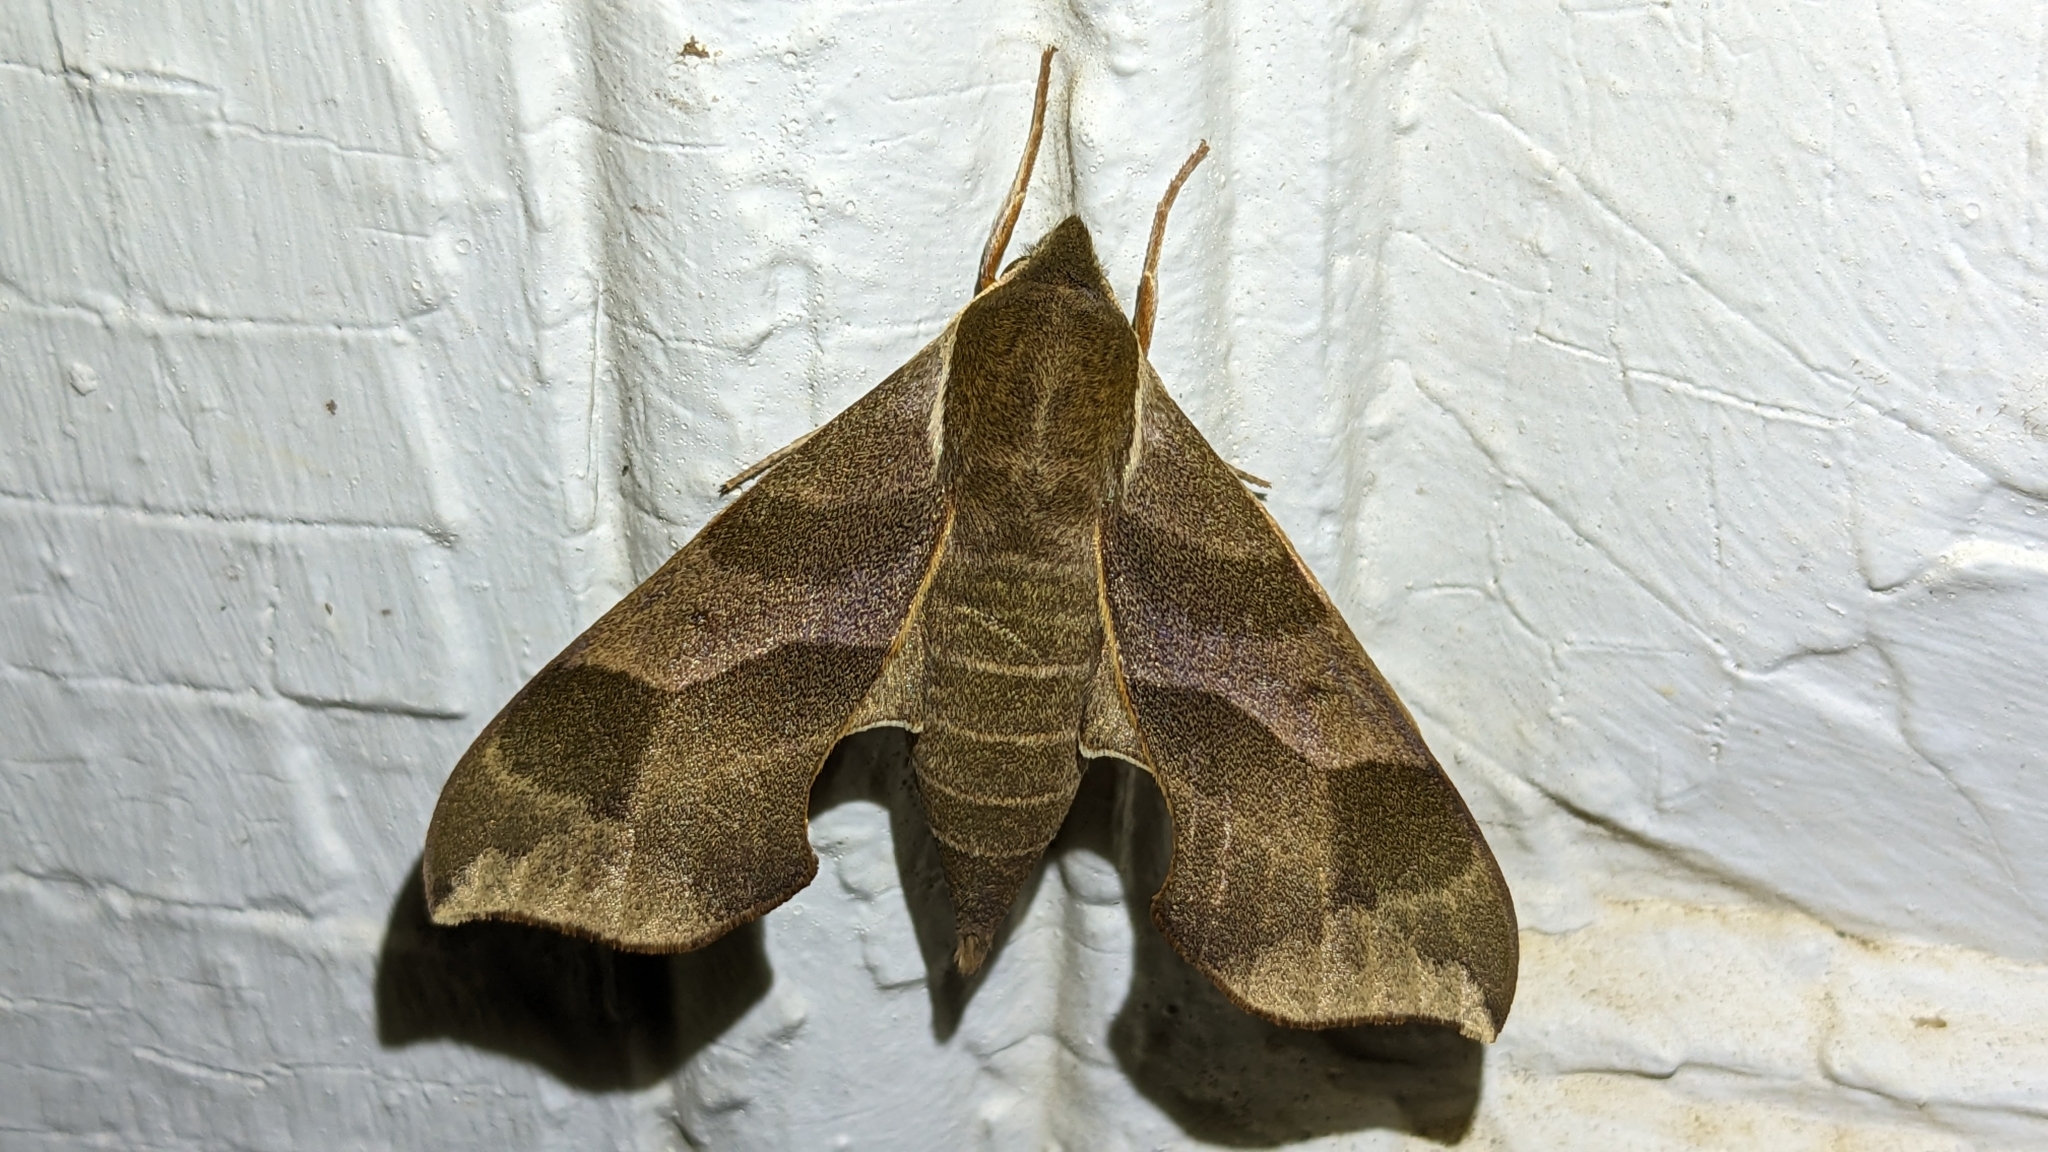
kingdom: Animalia
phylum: Arthropoda
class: Insecta
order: Lepidoptera
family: Sphingidae
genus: Darapsa
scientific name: Darapsa myron
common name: Hog sphinx
